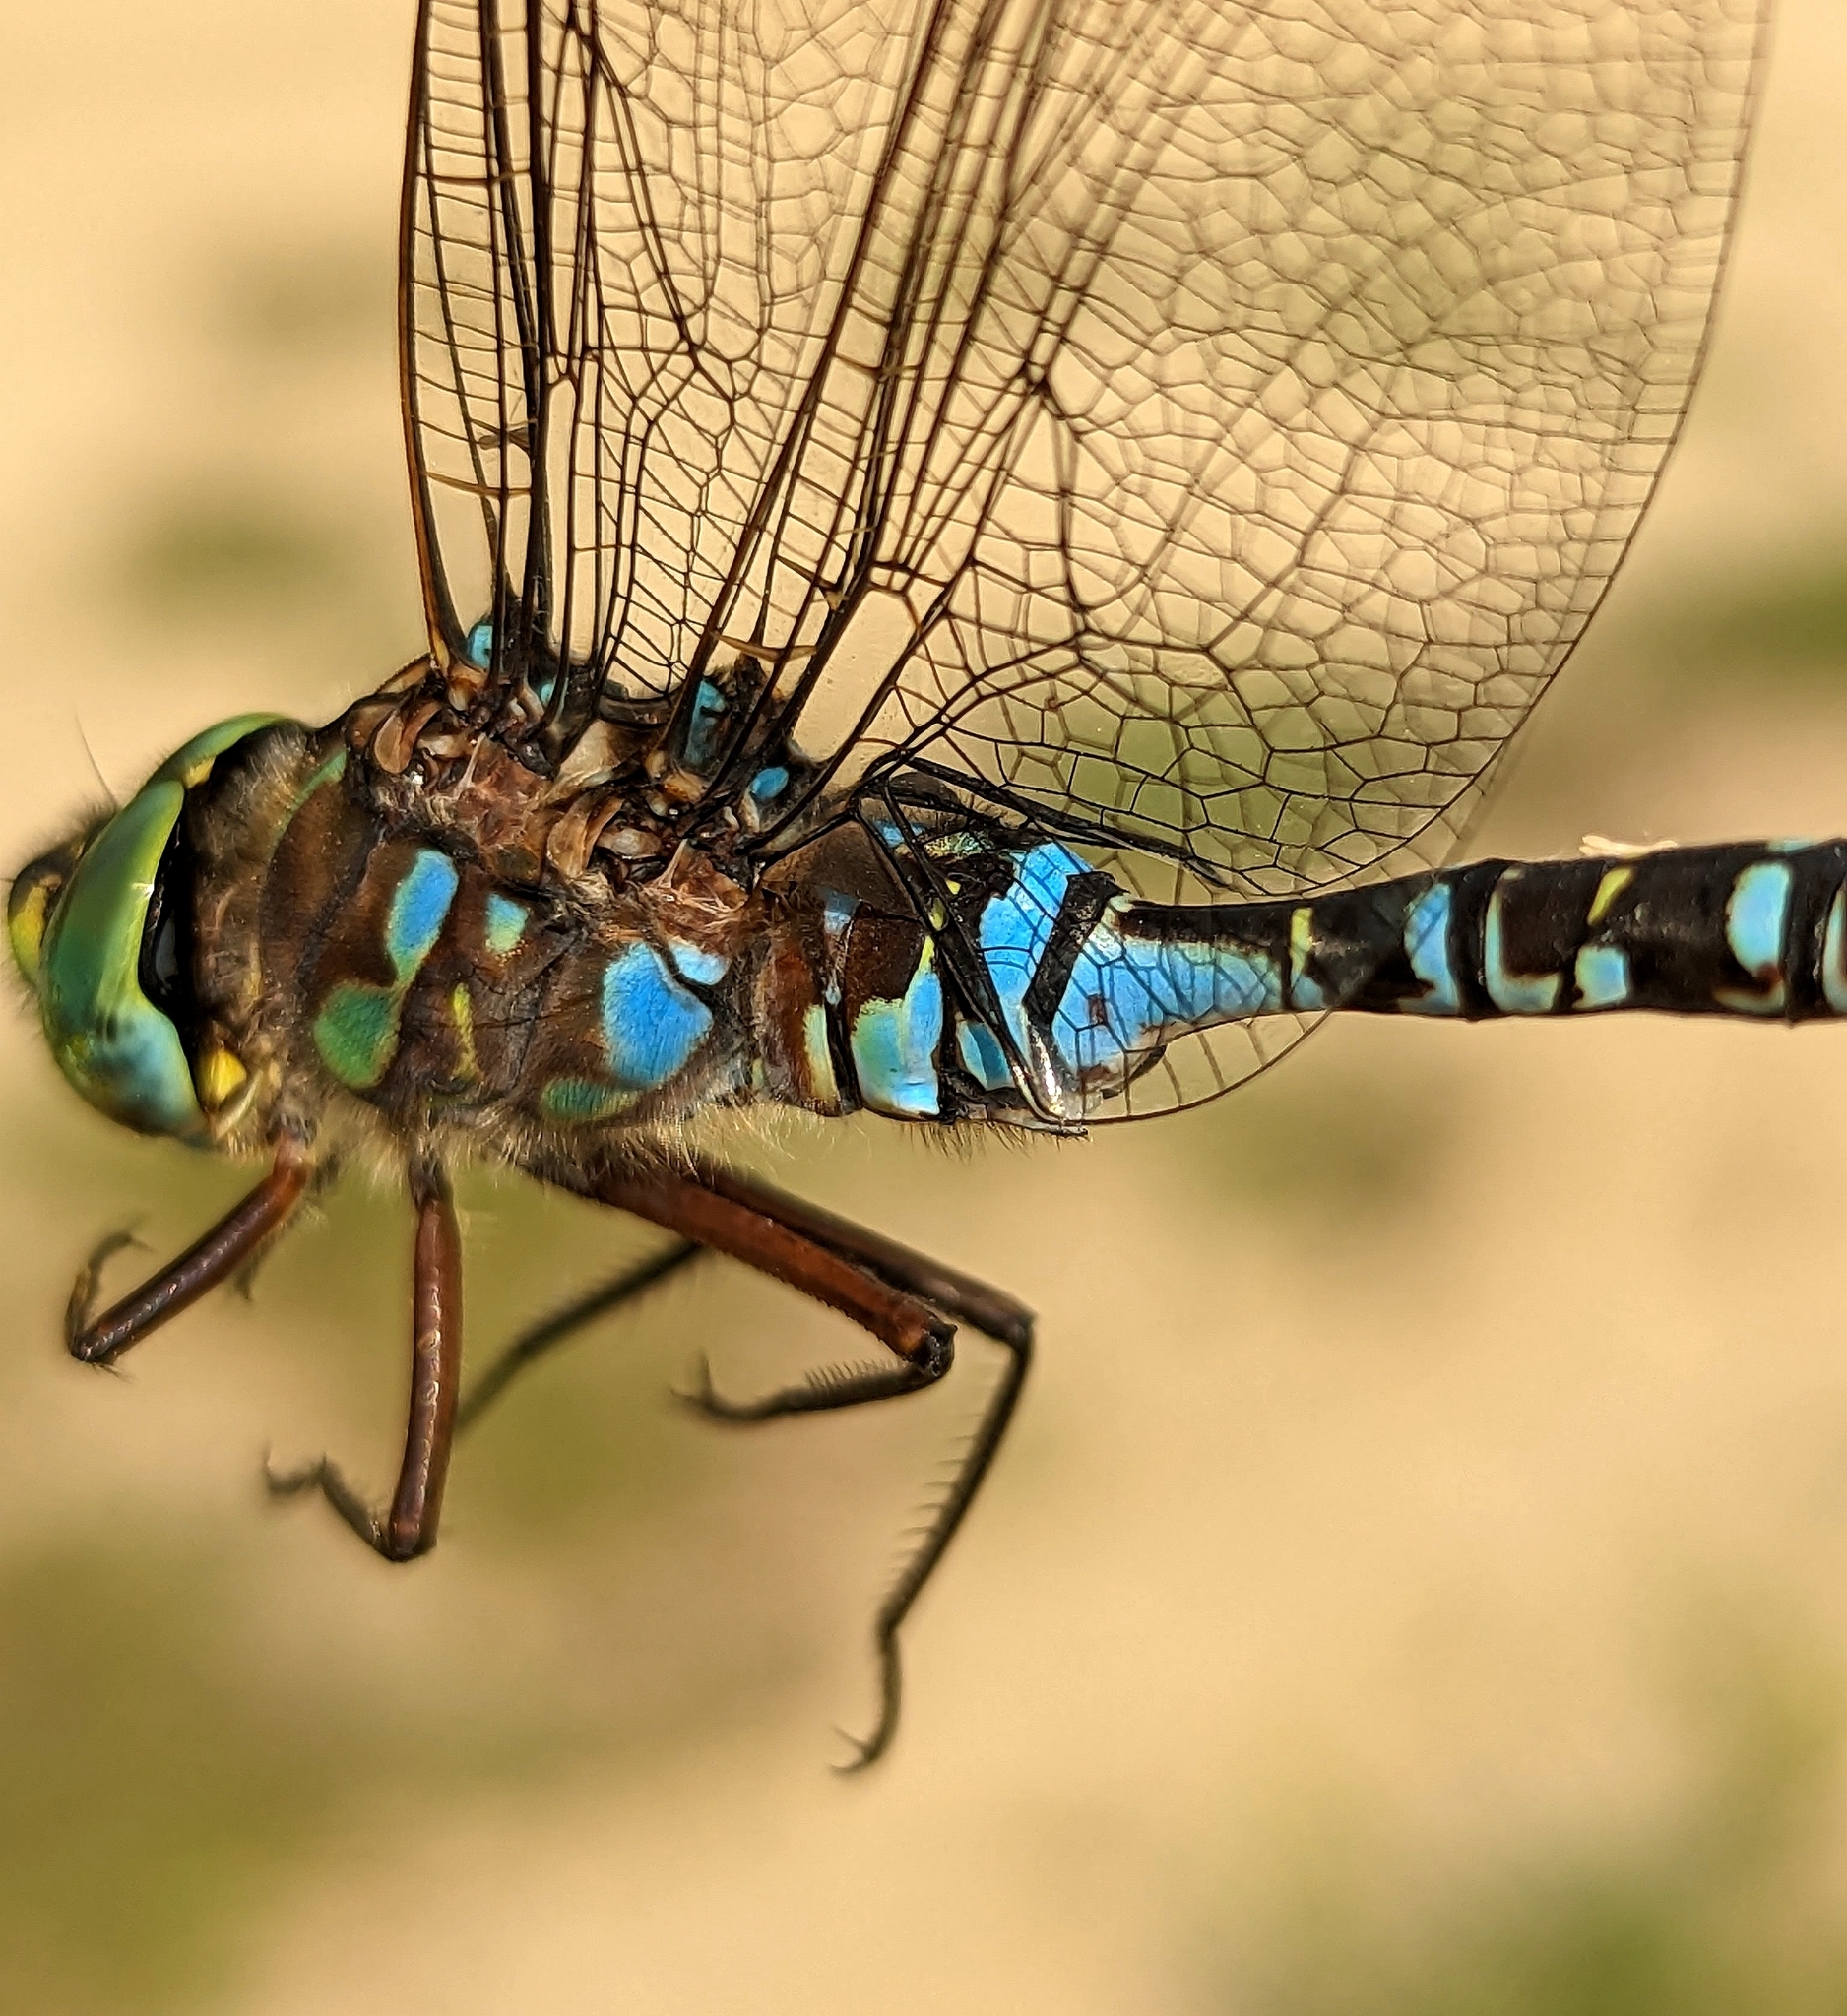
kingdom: Animalia
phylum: Arthropoda
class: Insecta
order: Odonata
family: Aeshnidae
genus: Aeshna
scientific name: Aeshna eremita
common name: Lake darner
